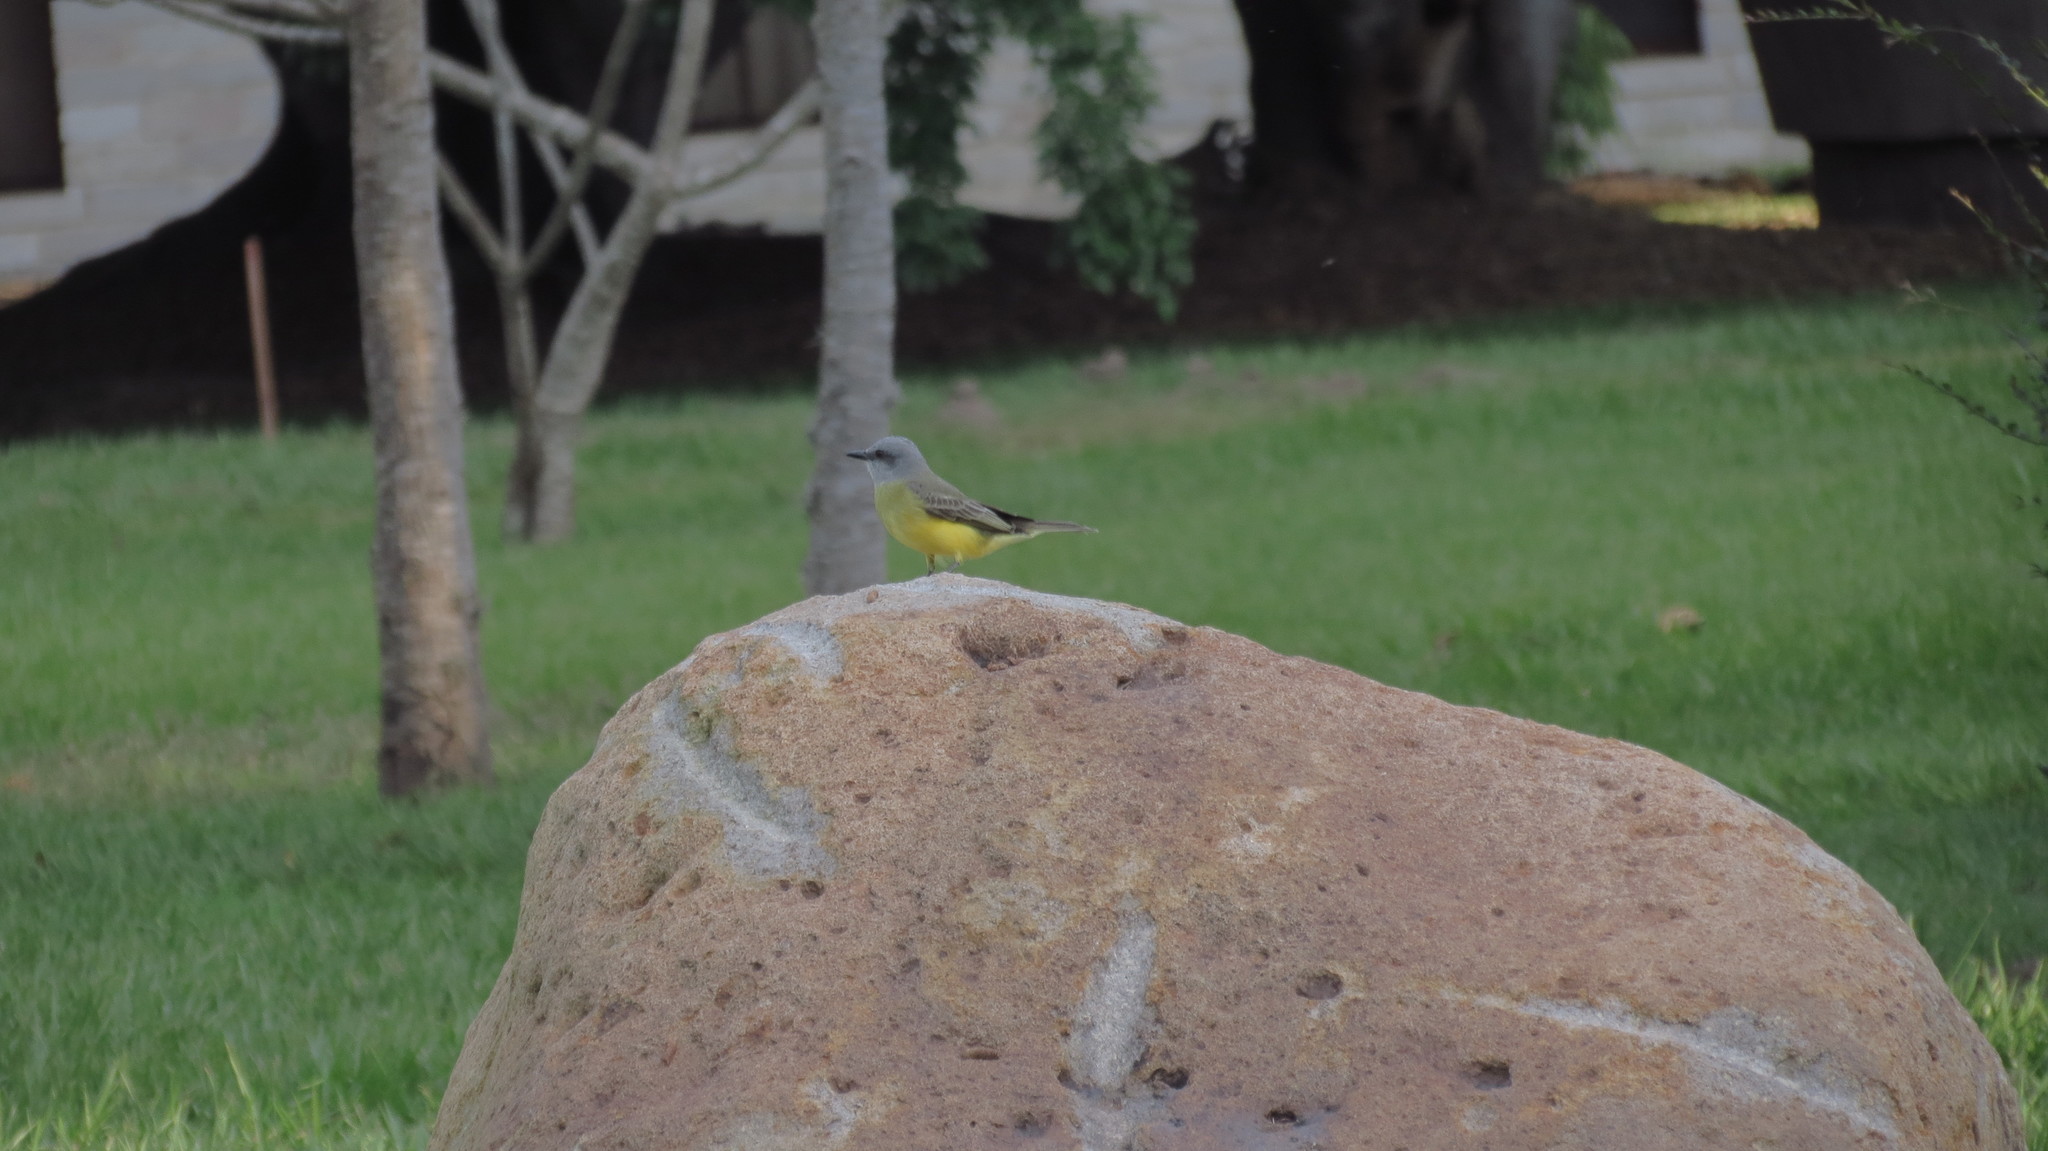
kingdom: Animalia
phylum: Chordata
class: Aves
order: Passeriformes
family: Tyrannidae
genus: Tyrannus
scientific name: Tyrannus melancholicus
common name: Tropical kingbird
